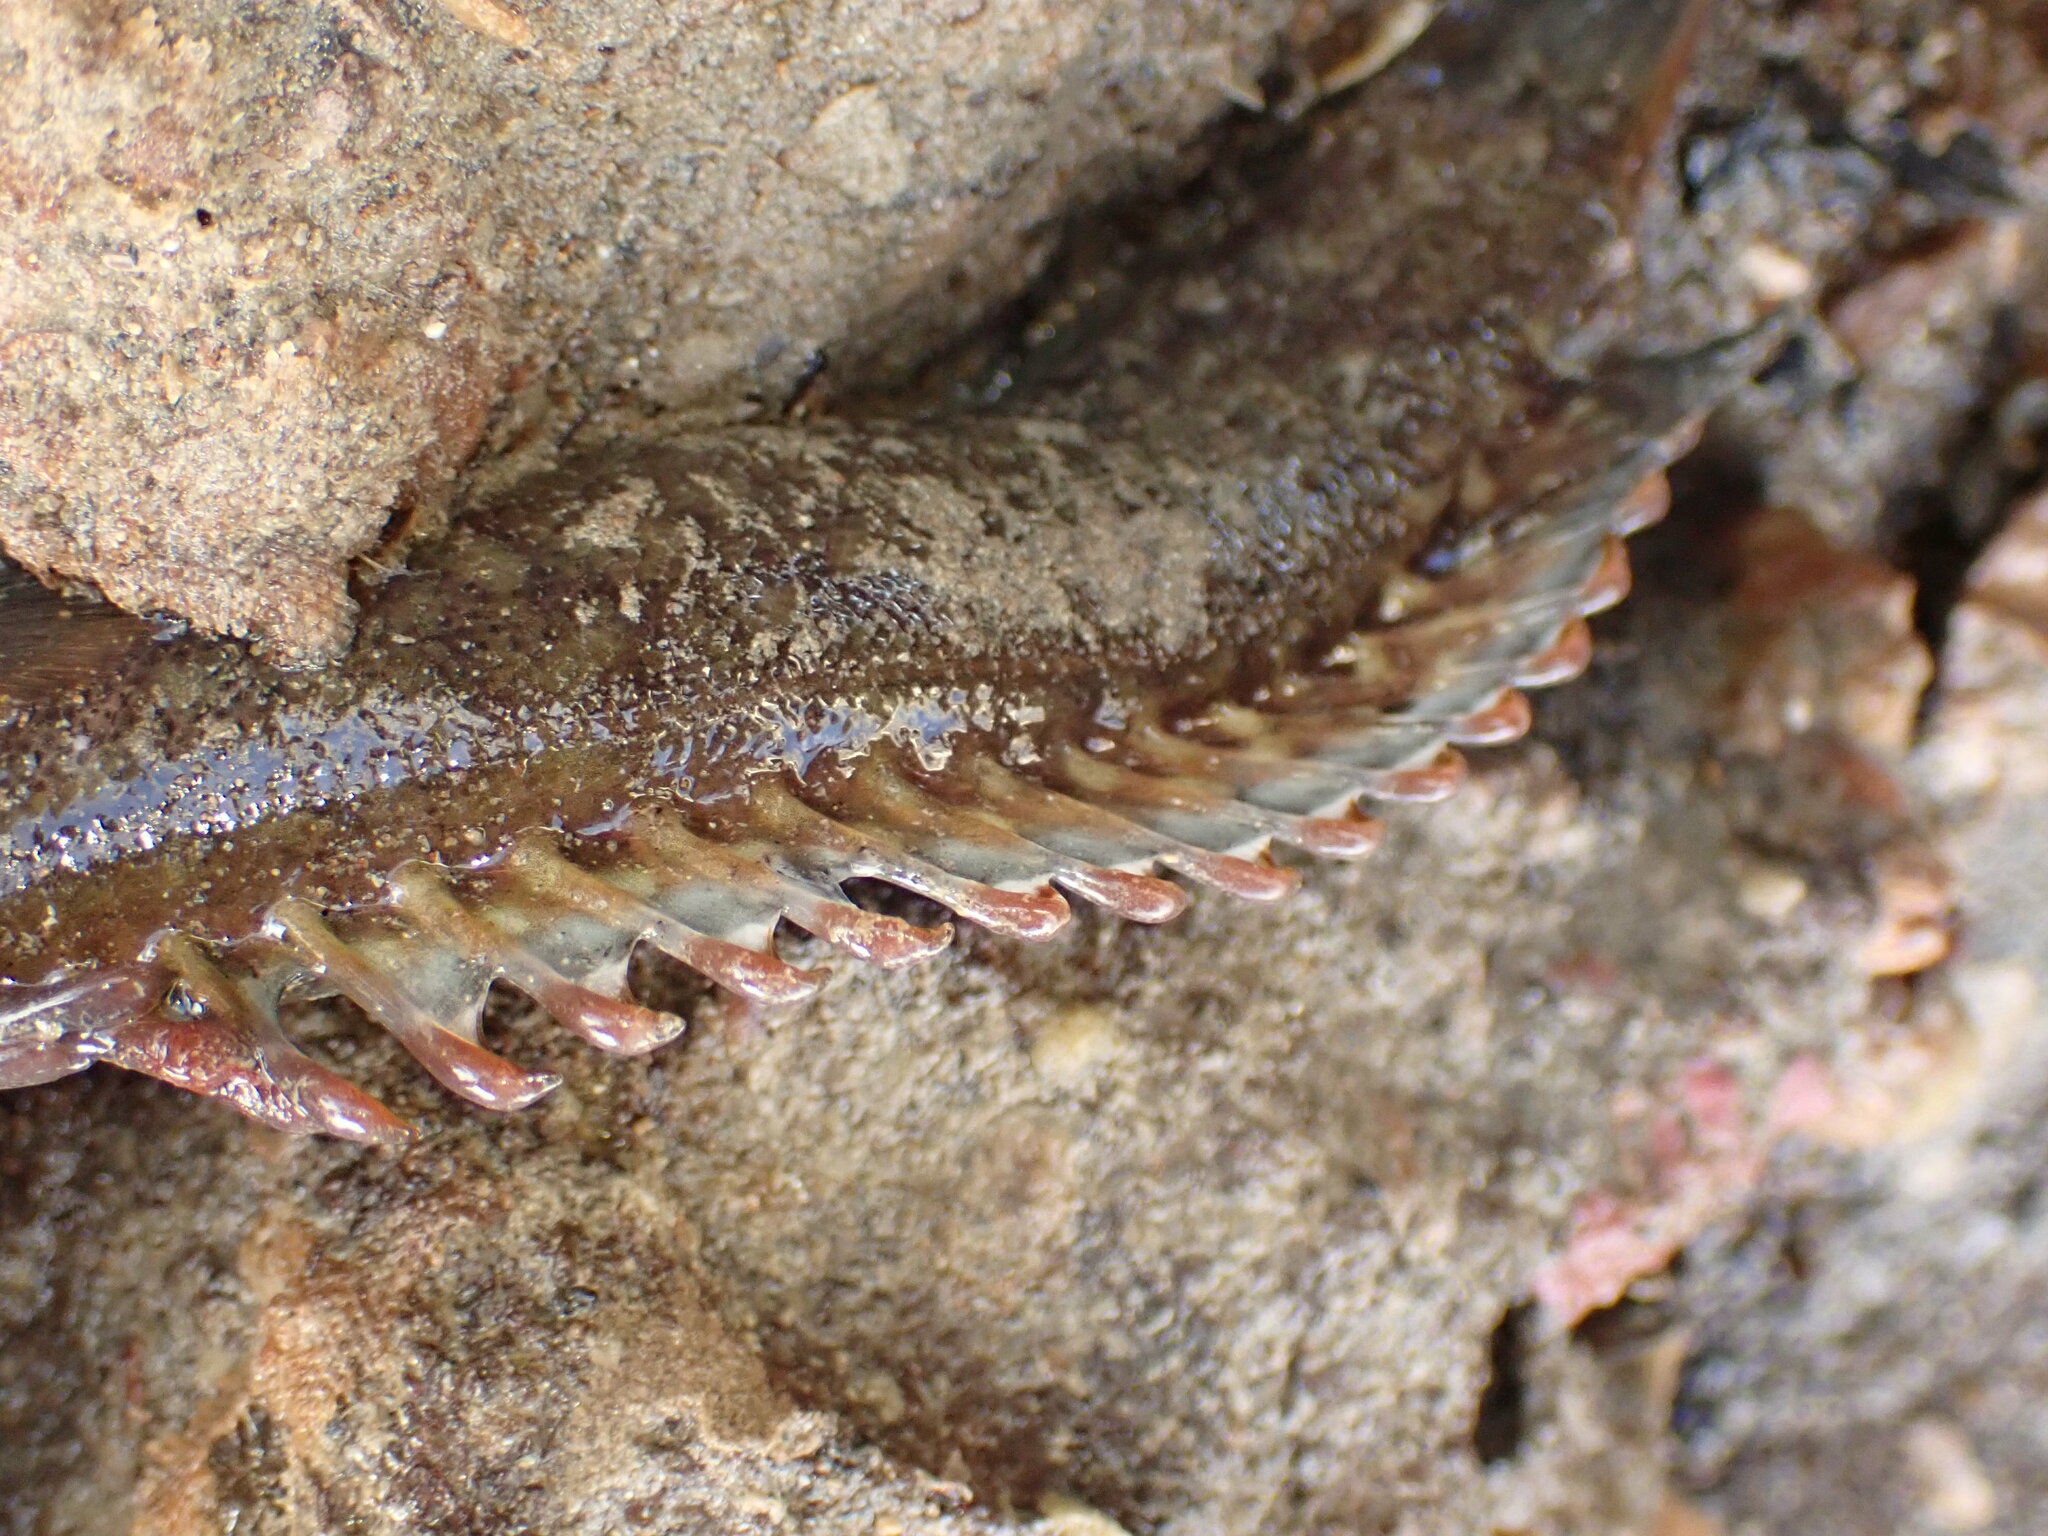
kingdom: Animalia
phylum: Chordata
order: Perciformes
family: Plesiopidae
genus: Acanthoclinus
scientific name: Acanthoclinus fuscus
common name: Olive rockfish
